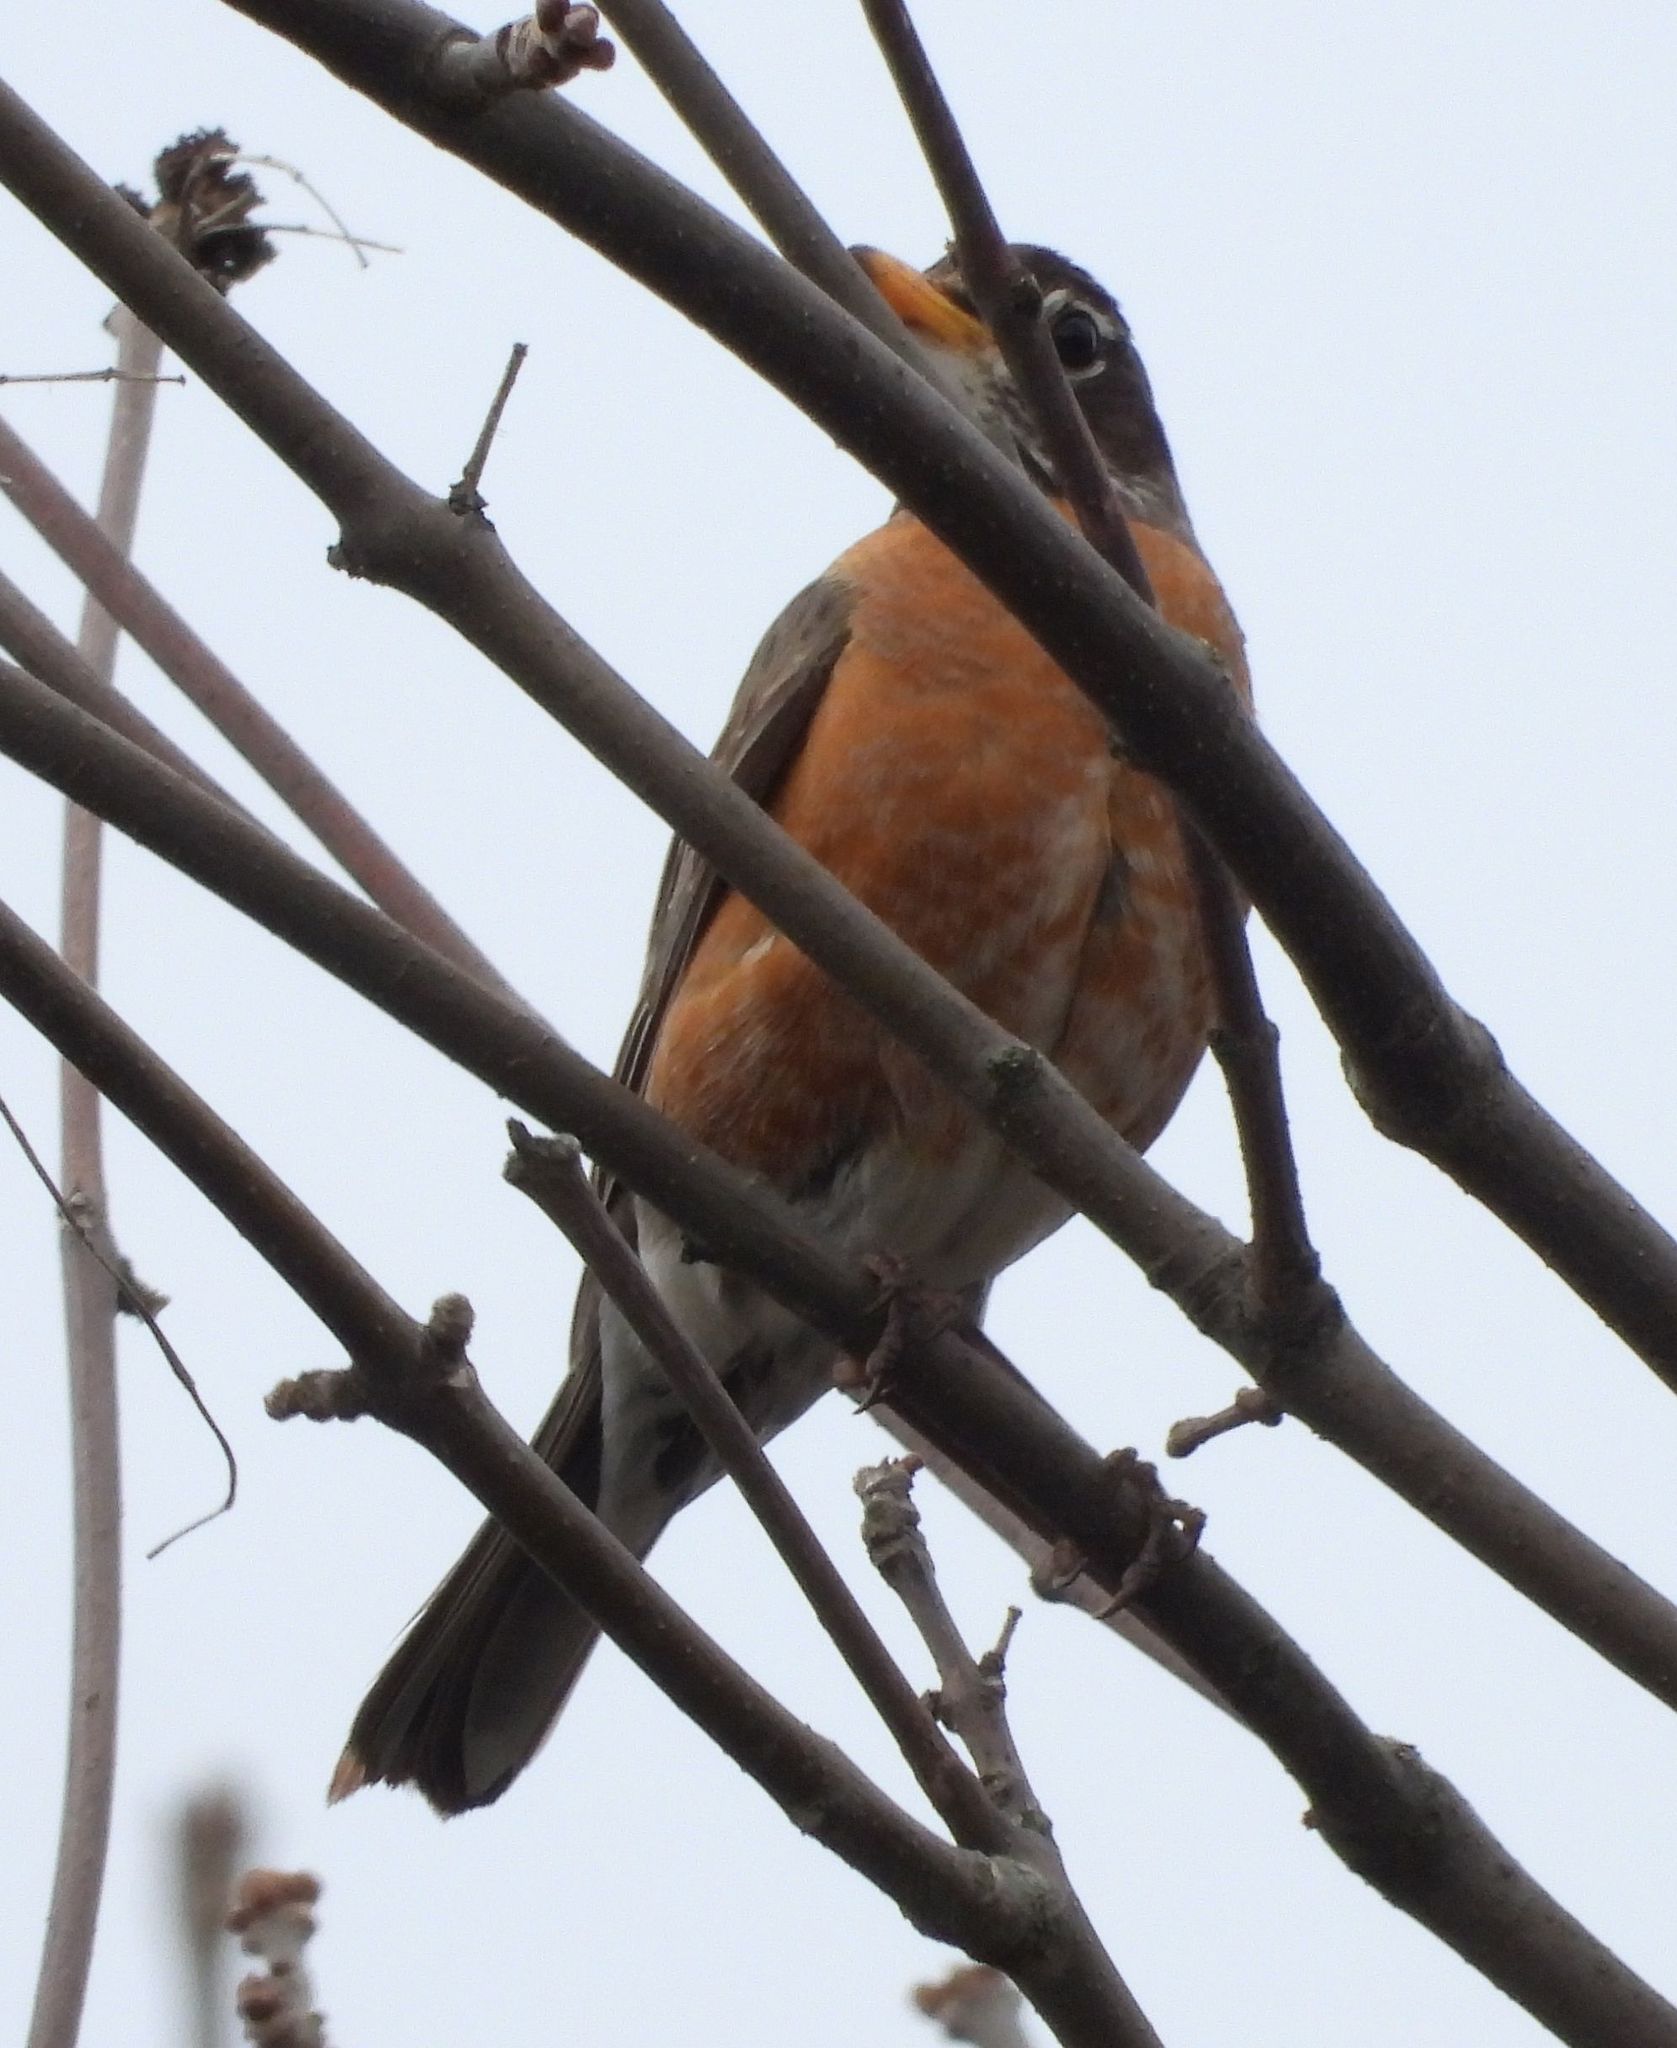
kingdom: Animalia
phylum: Chordata
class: Aves
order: Passeriformes
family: Turdidae
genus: Turdus
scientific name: Turdus migratorius
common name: American robin
